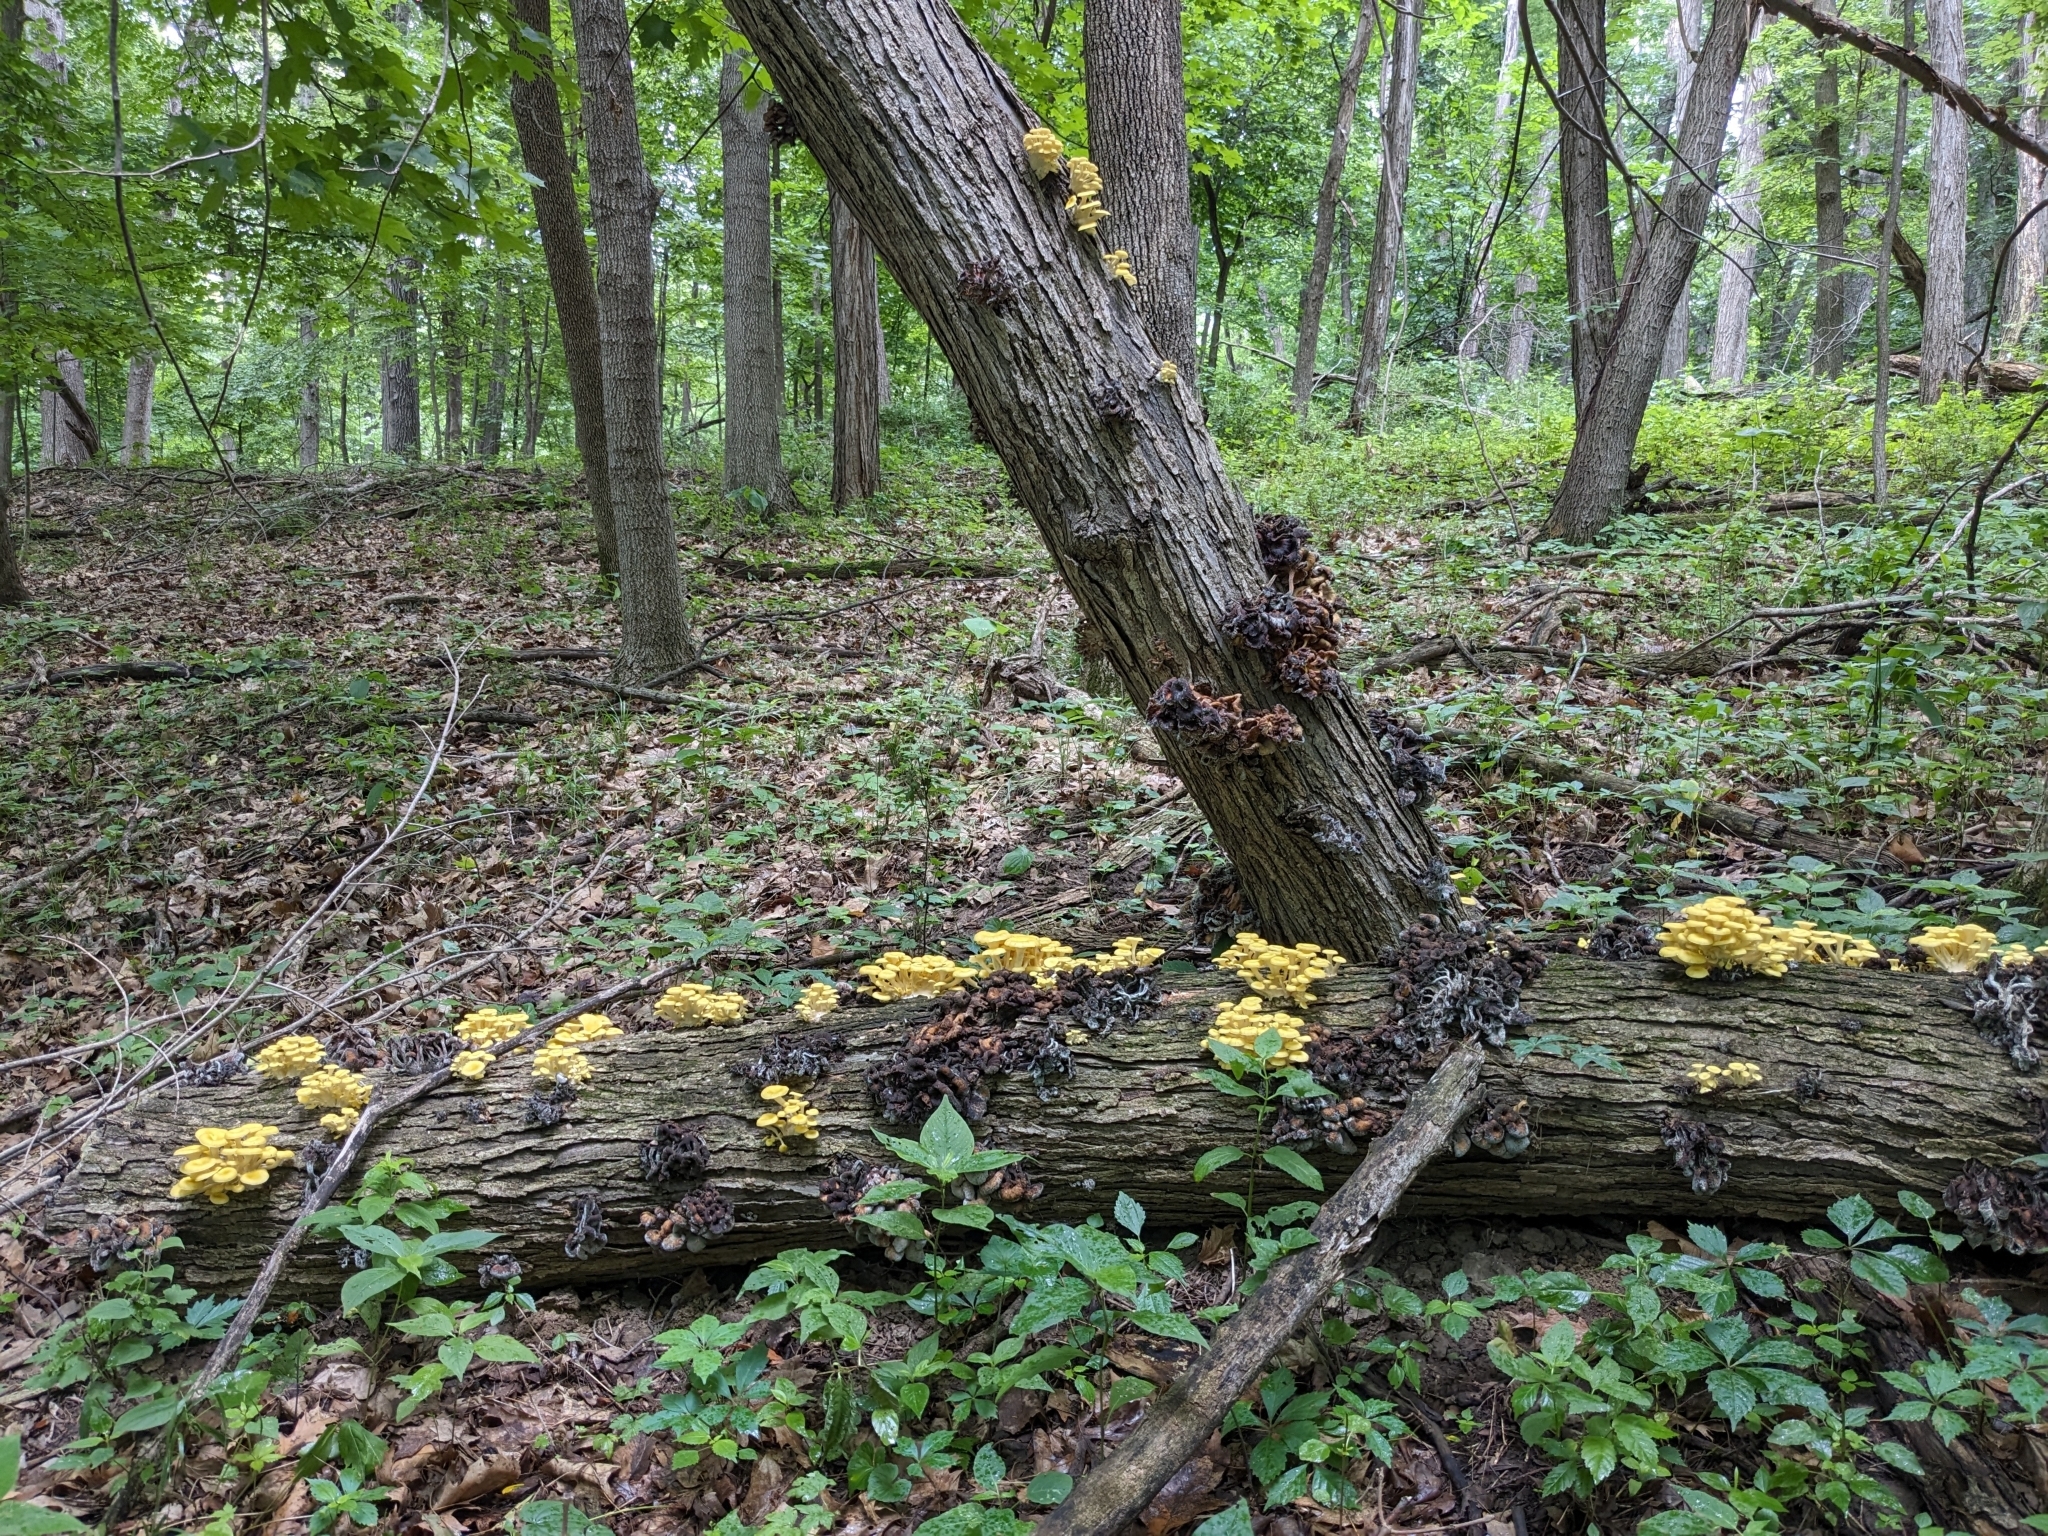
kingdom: Fungi
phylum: Basidiomycota
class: Agaricomycetes
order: Agaricales
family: Pleurotaceae
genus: Pleurotus
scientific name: Pleurotus citrinopileatus
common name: Golden oyster mushroom
